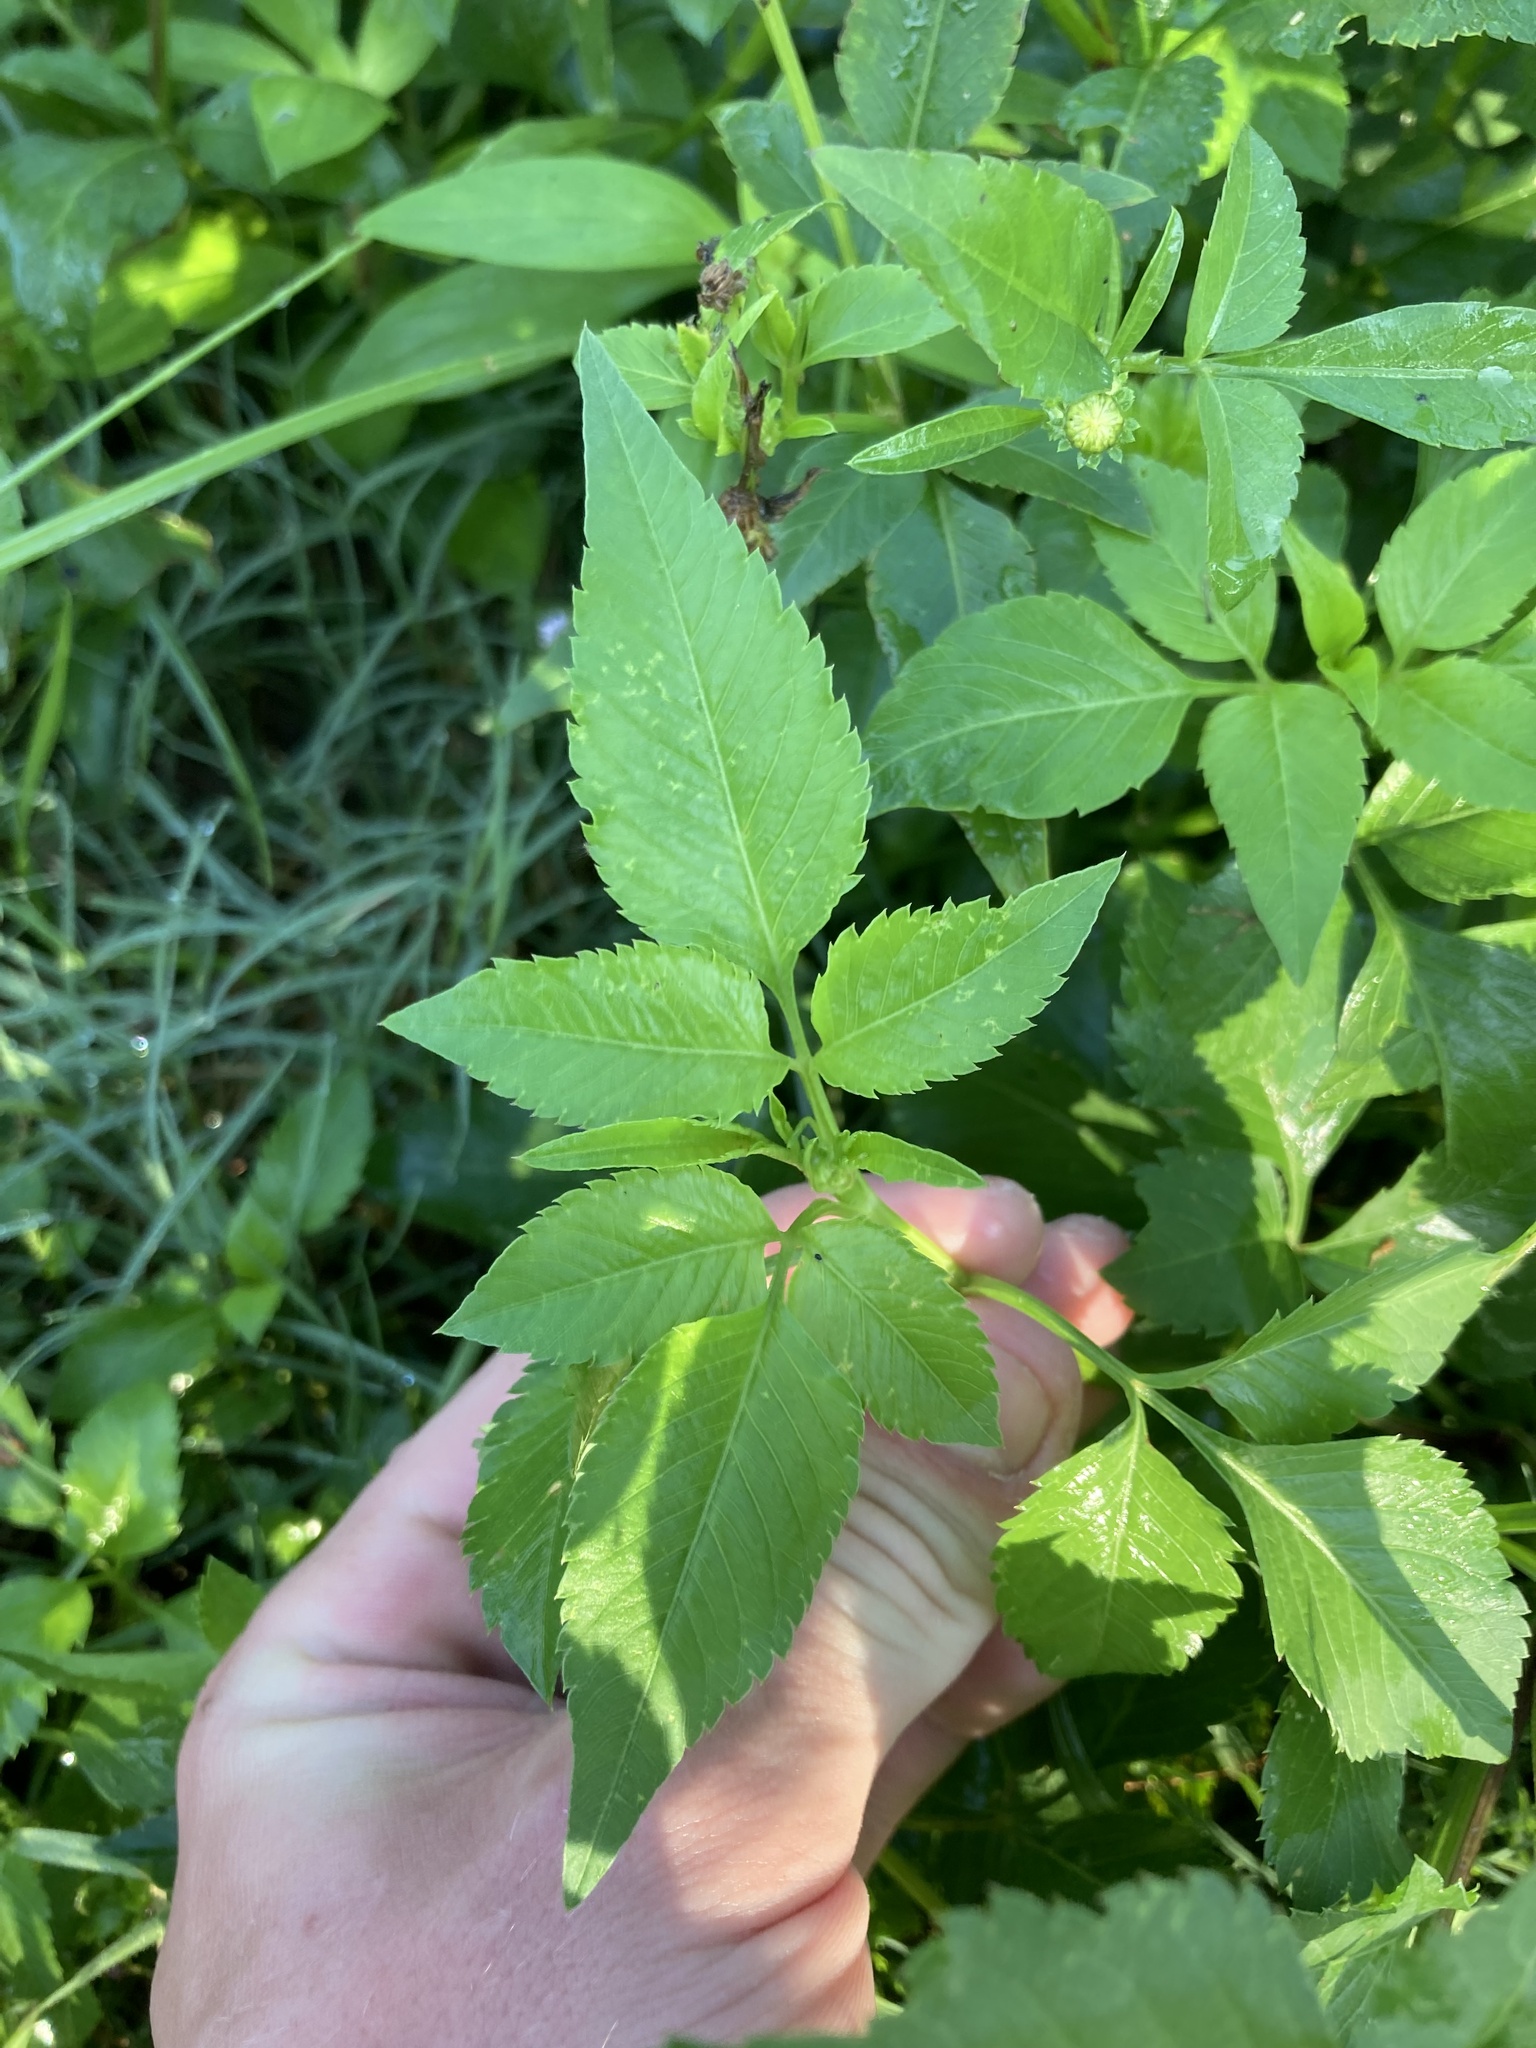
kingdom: Plantae
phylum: Tracheophyta
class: Magnoliopsida
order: Asterales
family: Asteraceae
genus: Bidens
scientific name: Bidens alba
